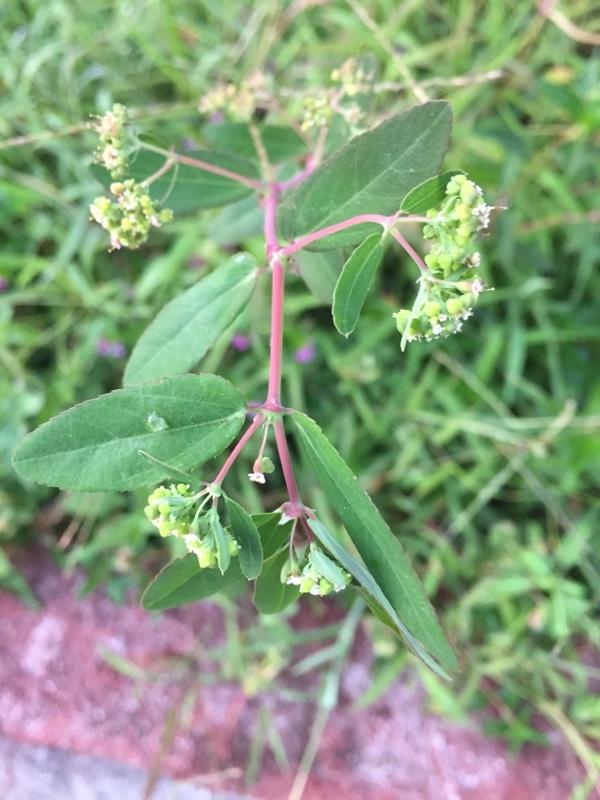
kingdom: Plantae
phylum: Tracheophyta
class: Magnoliopsida
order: Malpighiales
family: Euphorbiaceae
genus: Euphorbia
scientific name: Euphorbia hypericifolia
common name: Graceful sandmat
